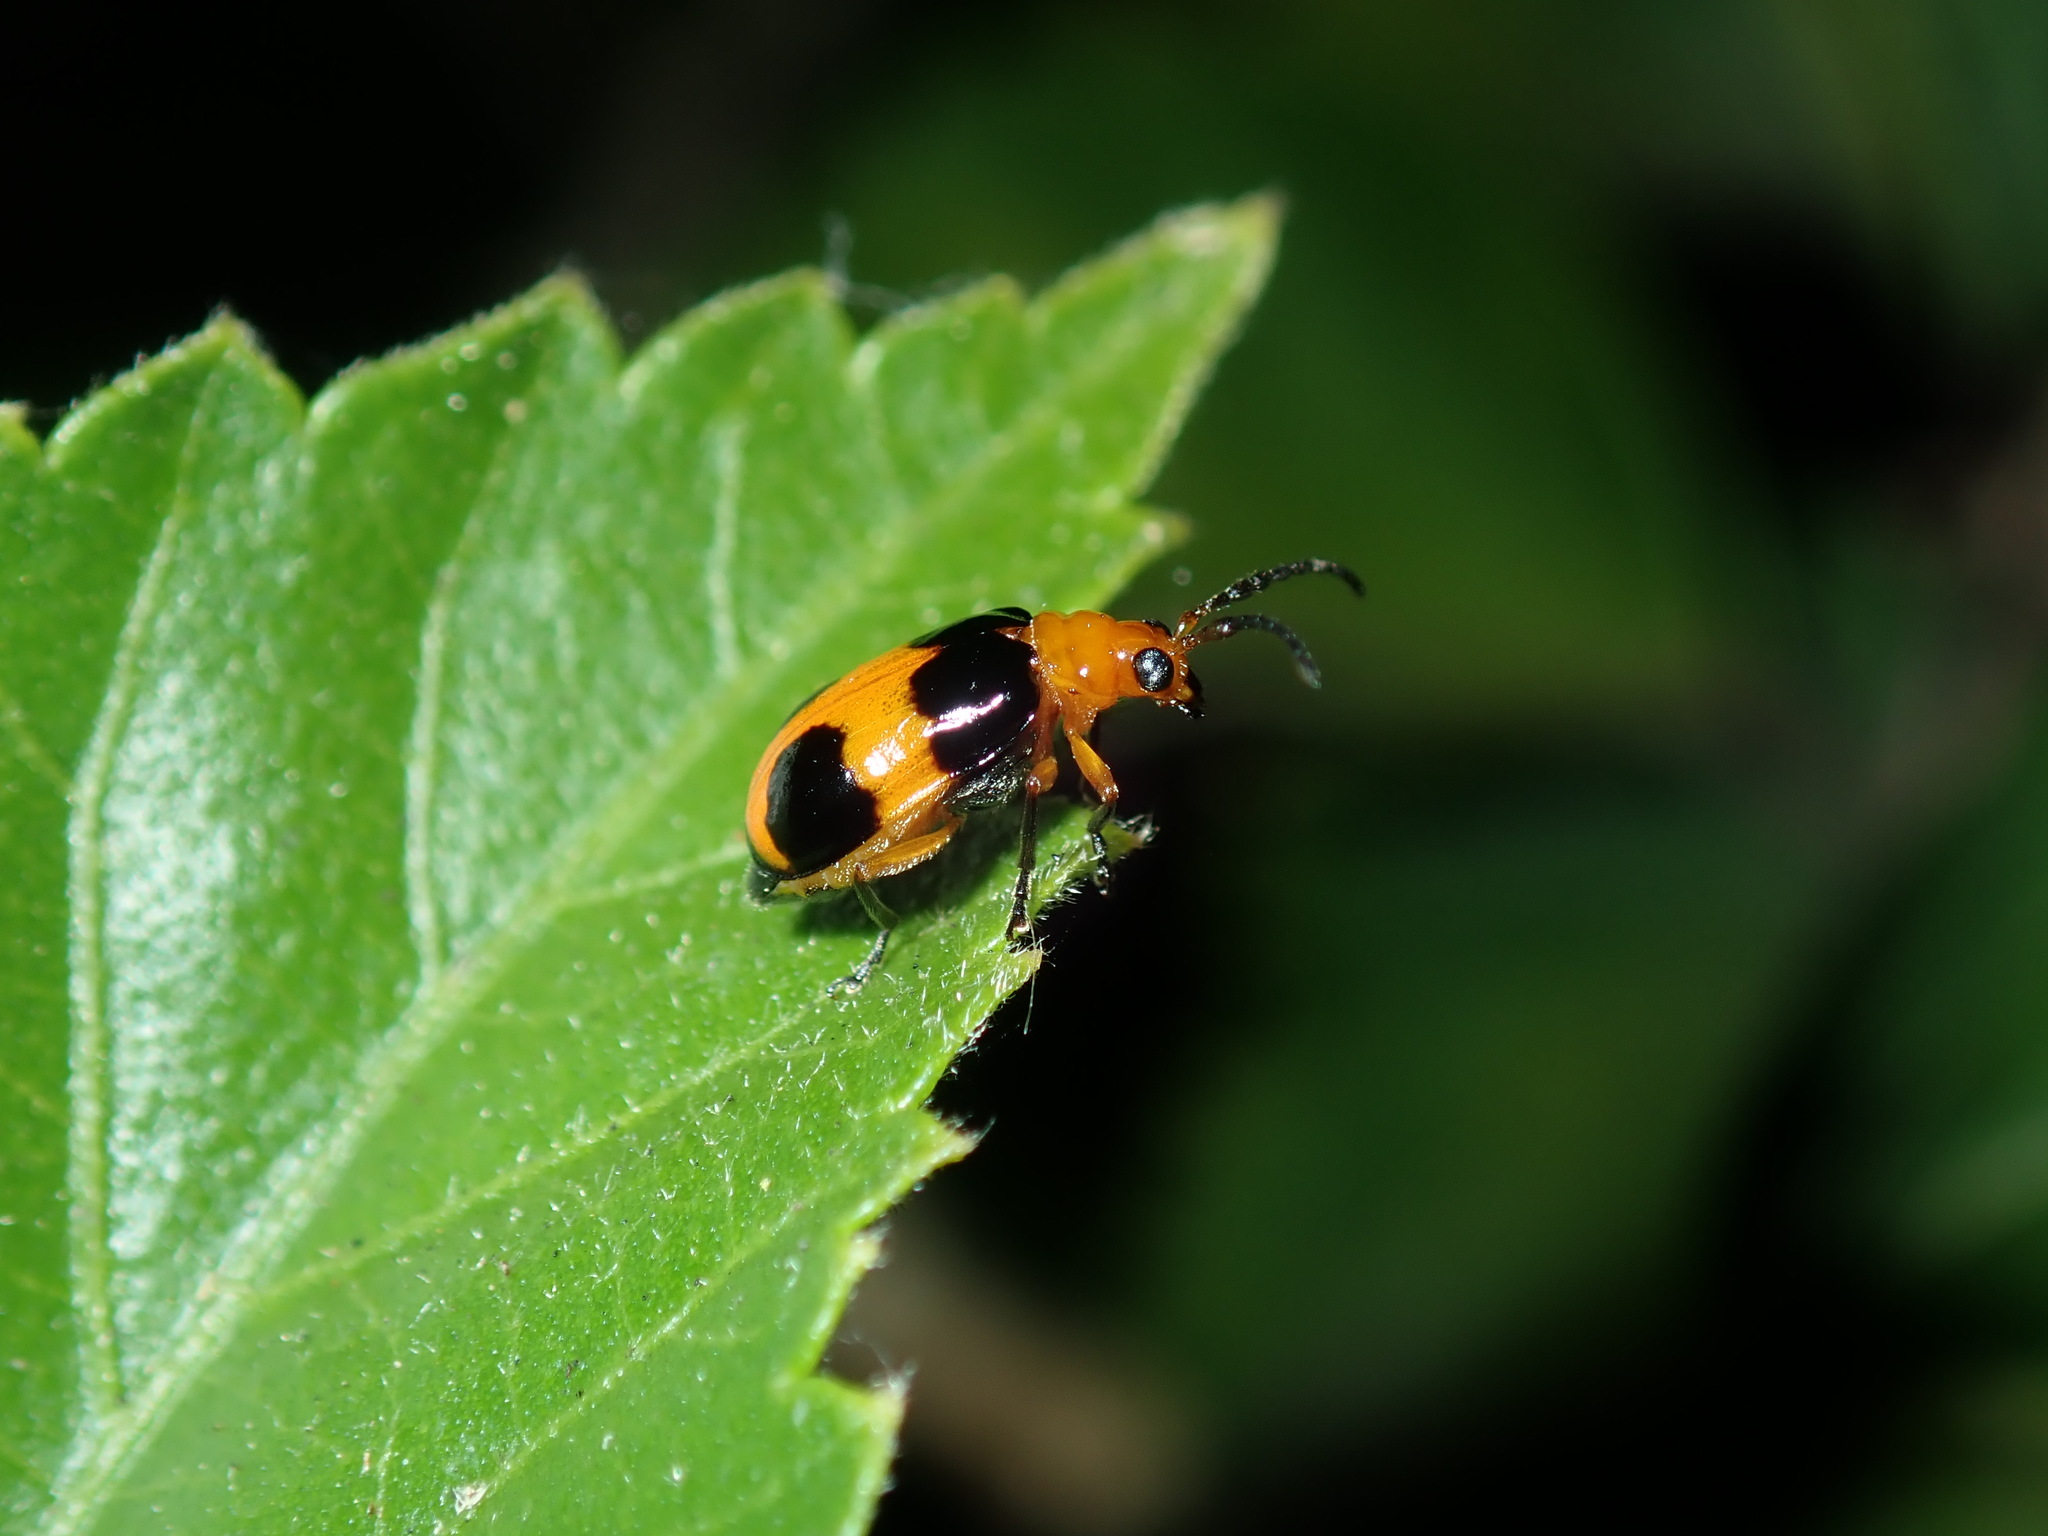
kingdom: Animalia
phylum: Arthropoda
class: Insecta
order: Coleoptera
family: Chrysomelidae
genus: Aulacophora
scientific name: Aulacophora
